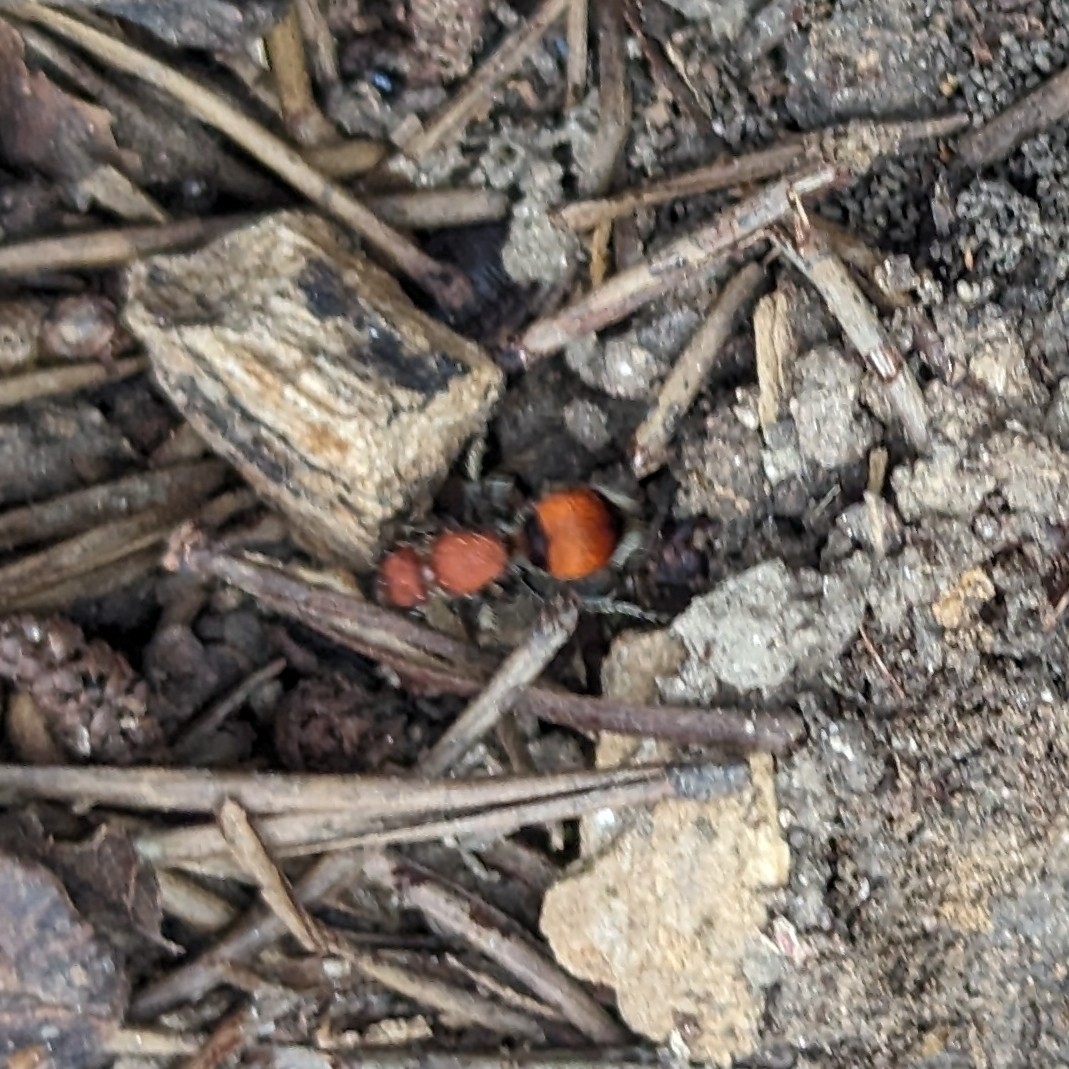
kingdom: Animalia
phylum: Arthropoda
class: Insecta
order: Hymenoptera
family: Mutillidae
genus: Pseudomethoca
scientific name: Pseudomethoca
